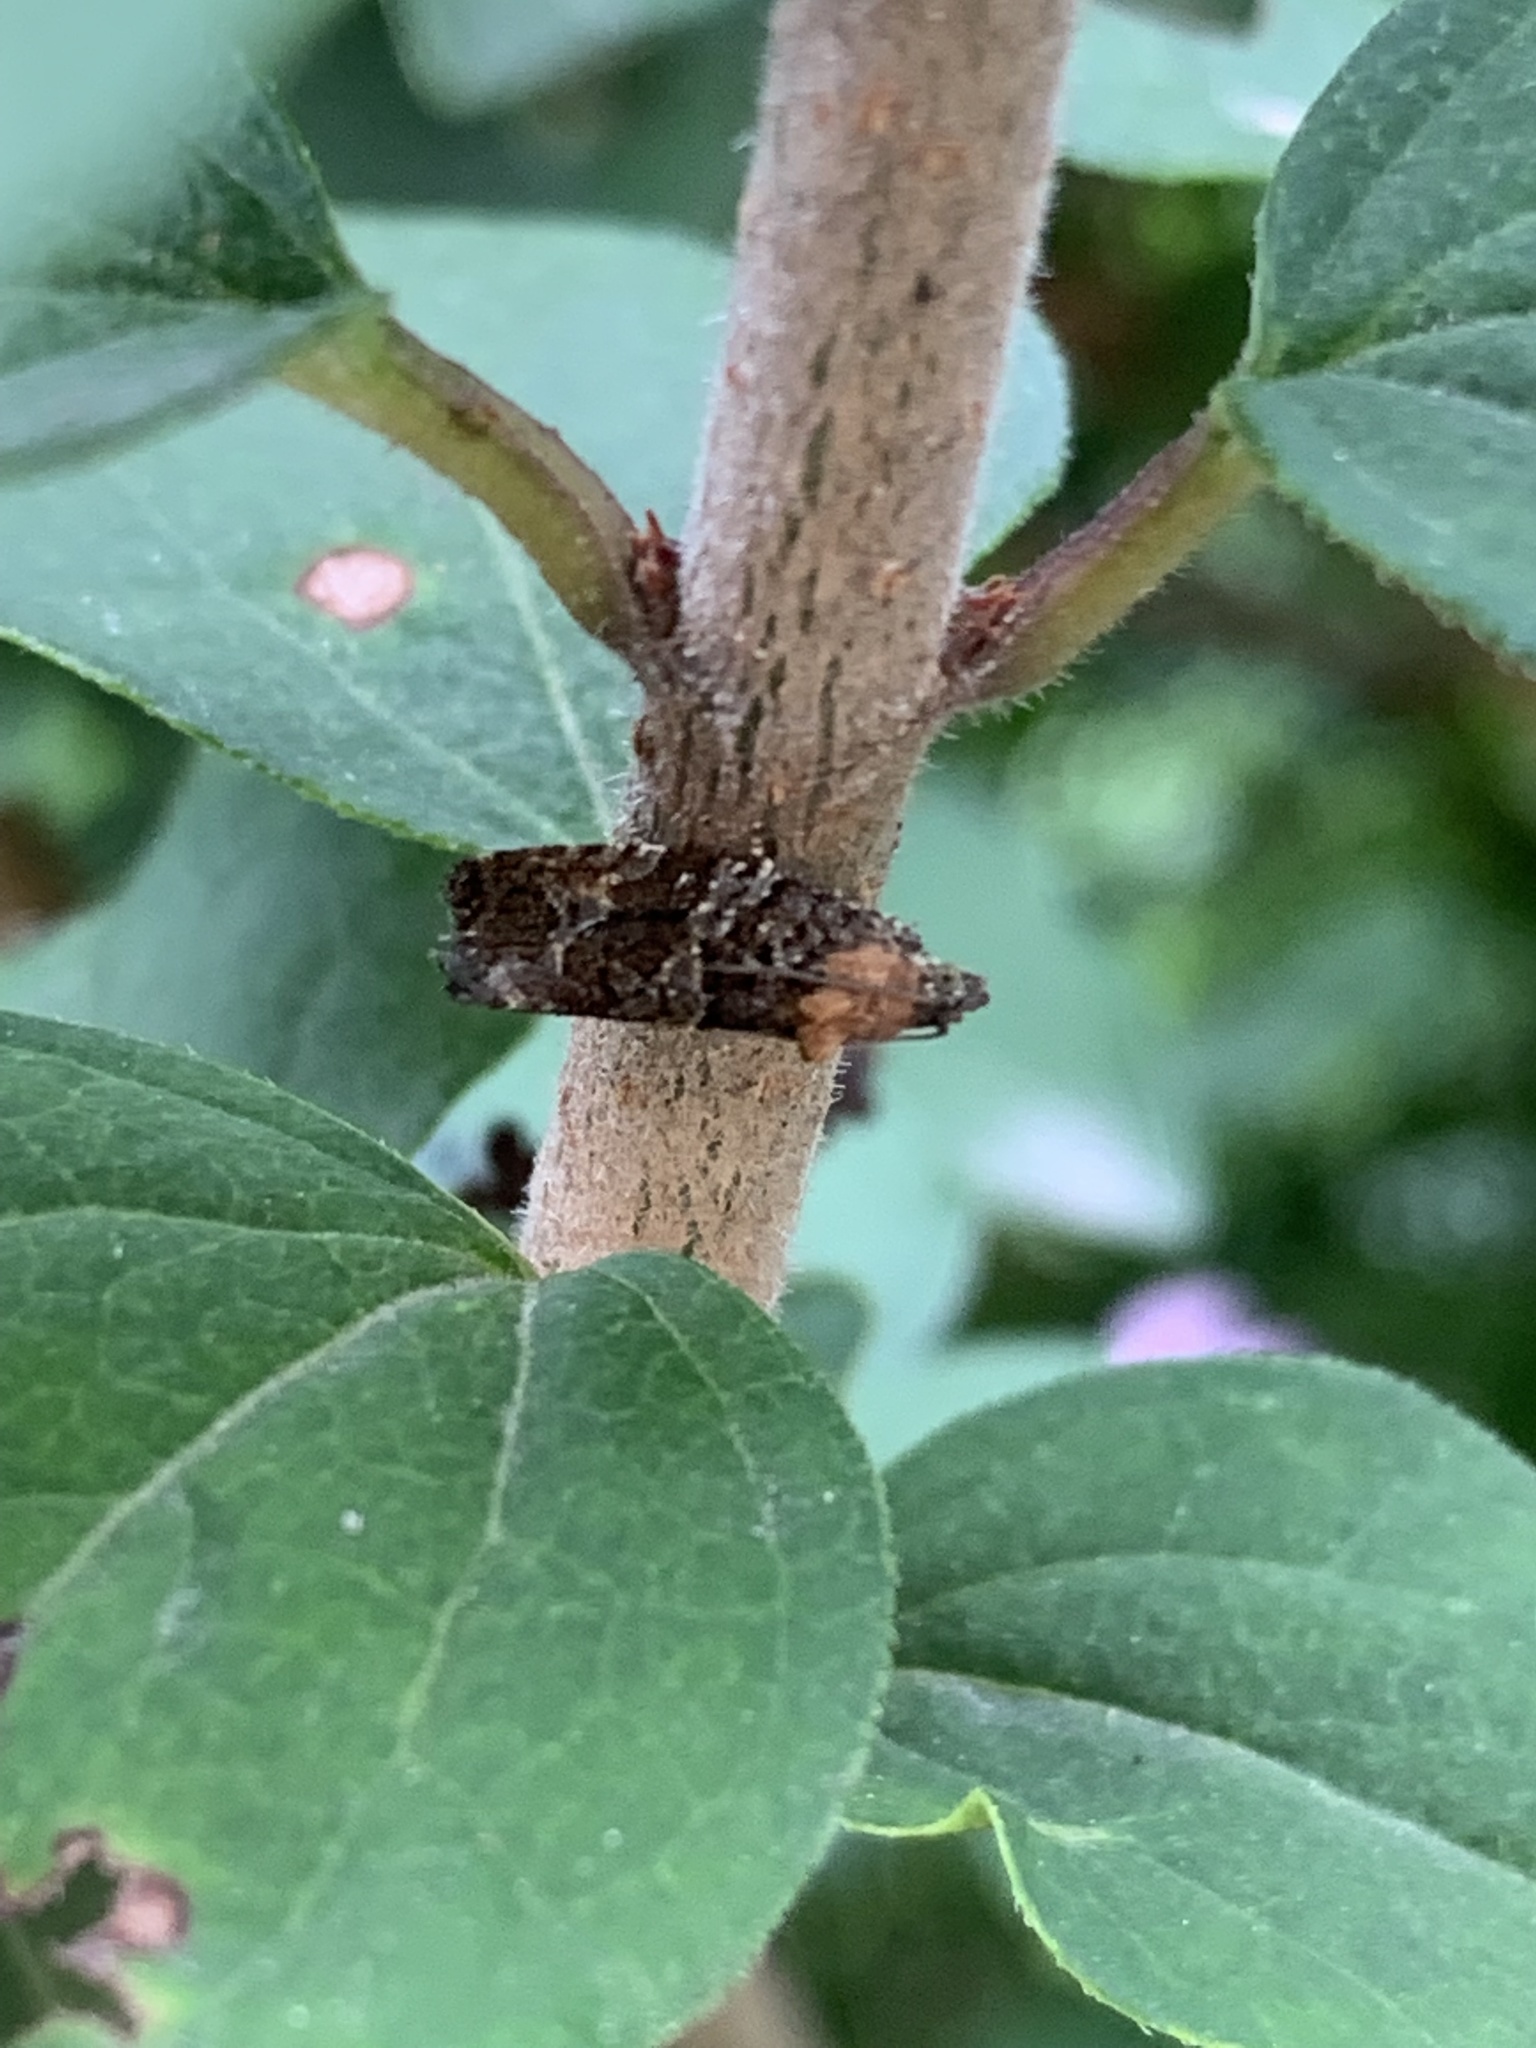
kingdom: Animalia
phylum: Arthropoda
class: Insecta
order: Lepidoptera
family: Tortricidae
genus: Eudemis
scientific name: Eudemis profundana
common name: Diamond-back marble
